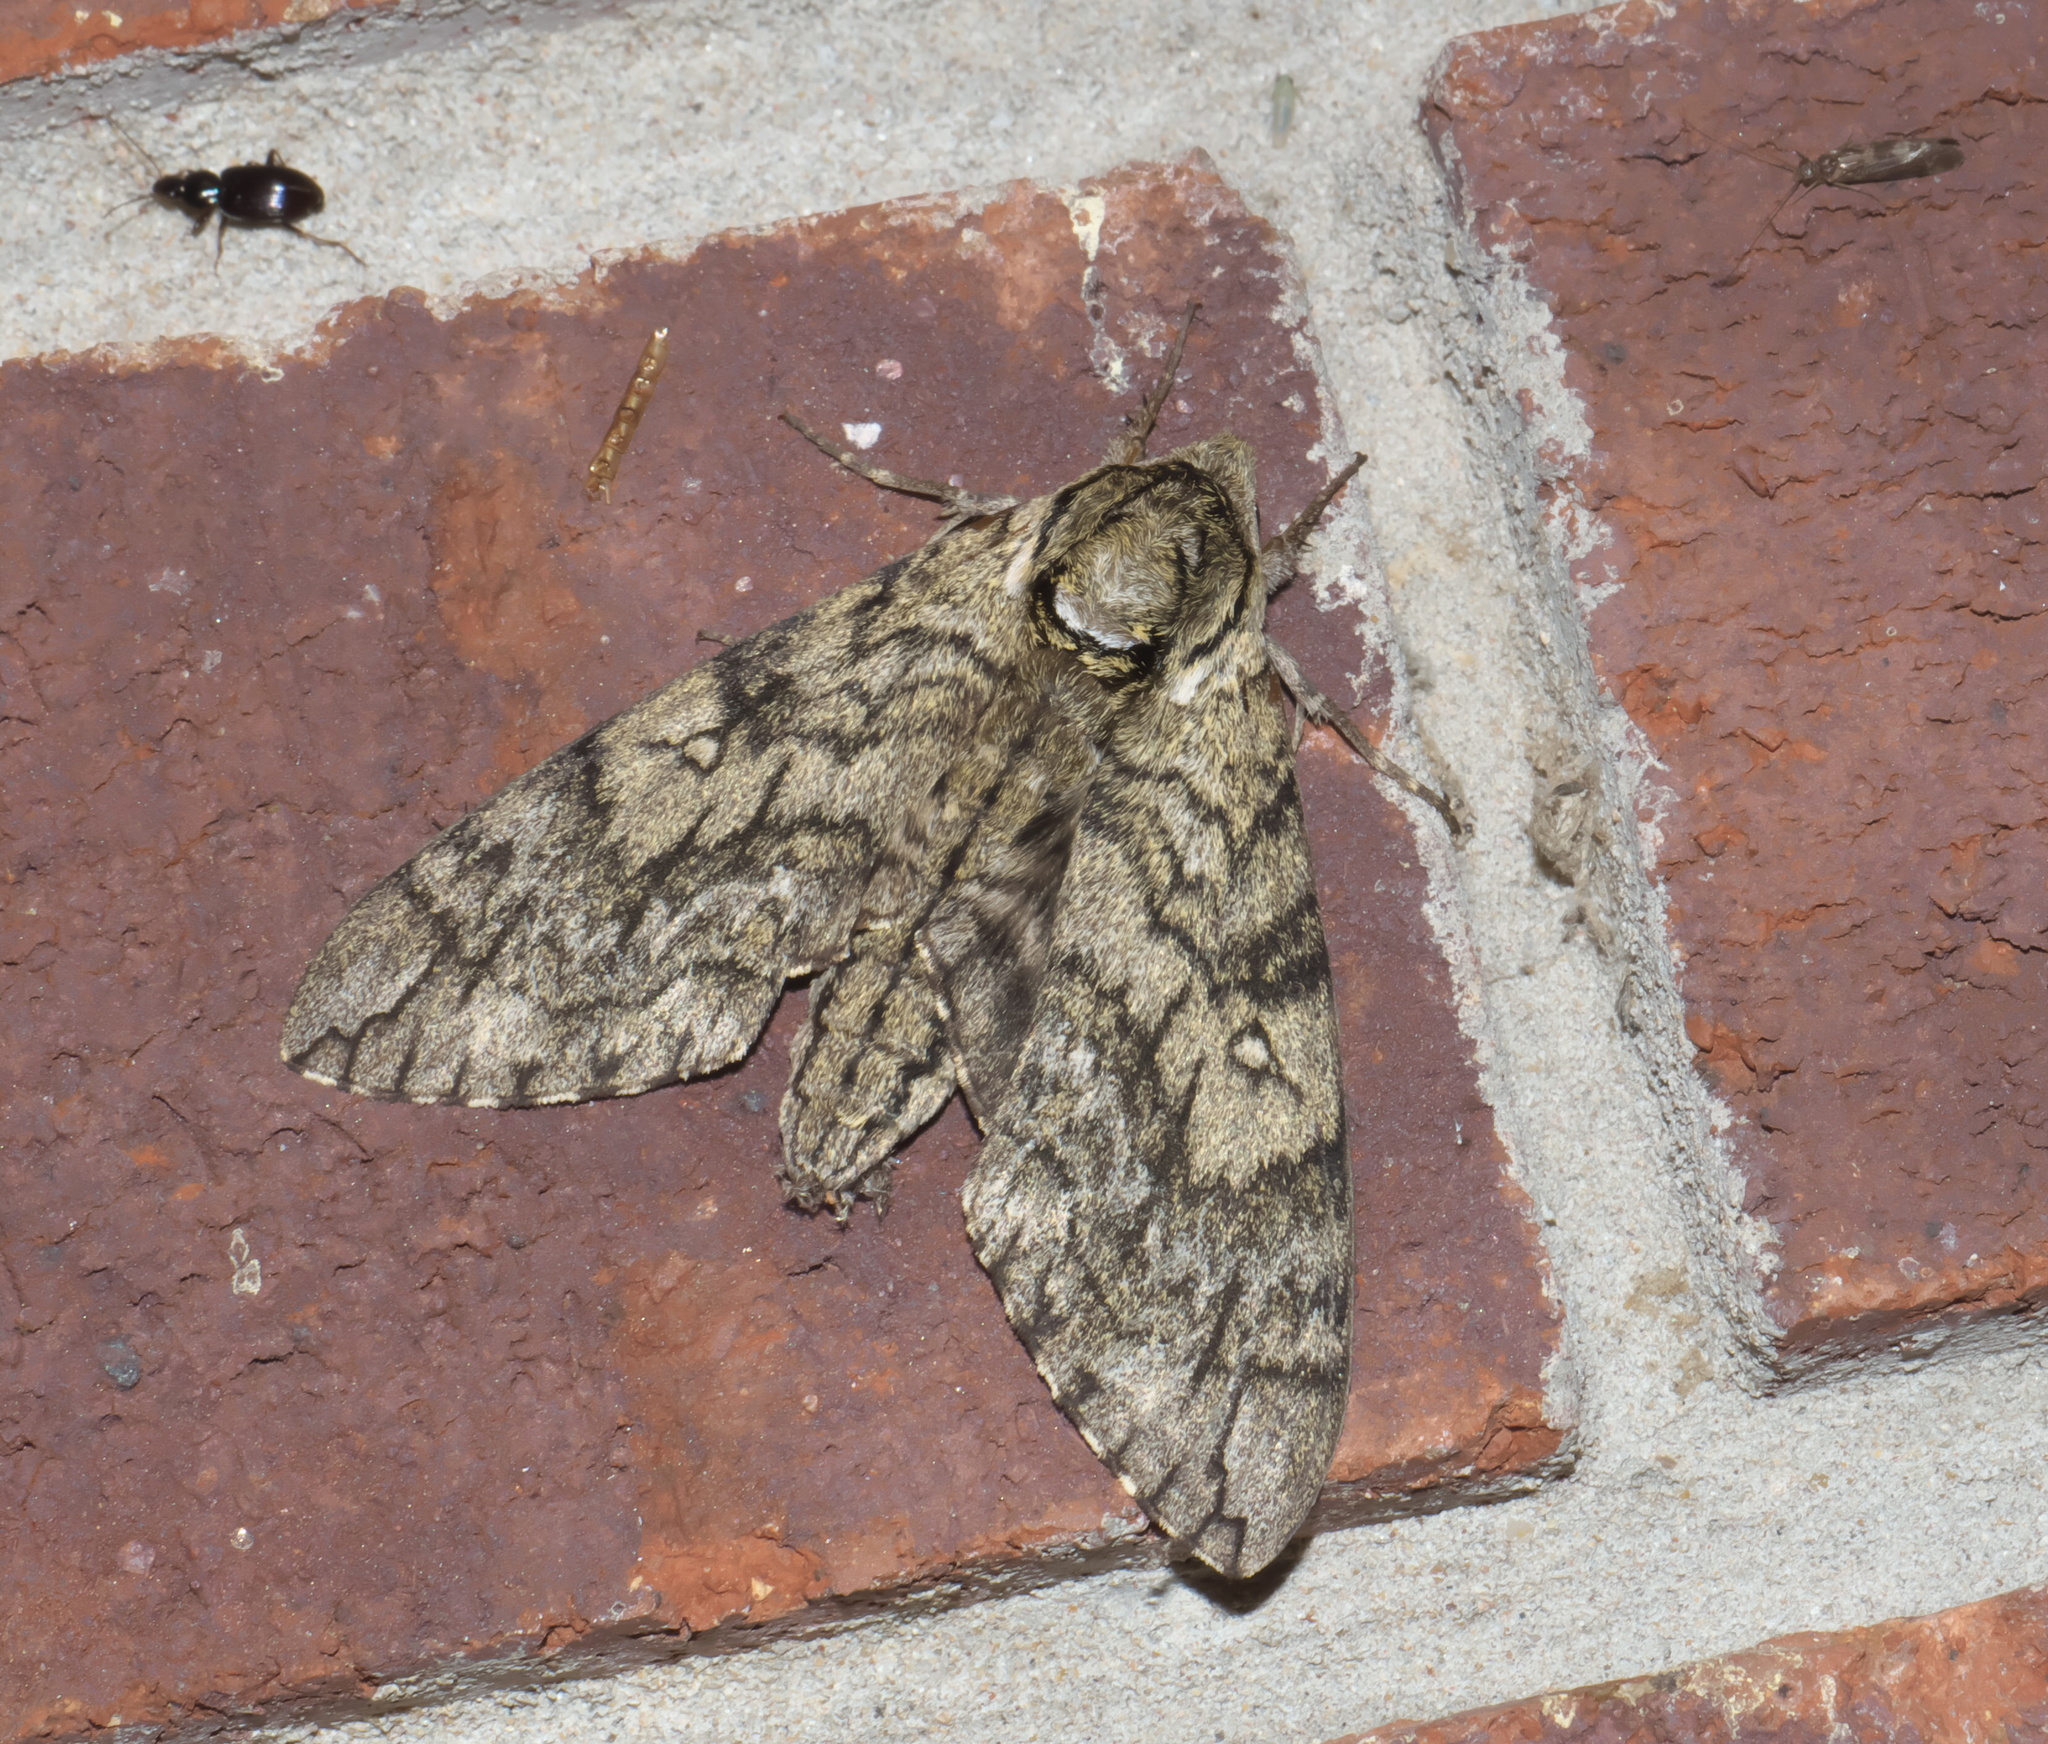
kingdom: Animalia
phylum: Arthropoda
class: Insecta
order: Lepidoptera
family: Sphingidae
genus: Ceratomia
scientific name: Ceratomia undulosa
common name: Waved sphinx
